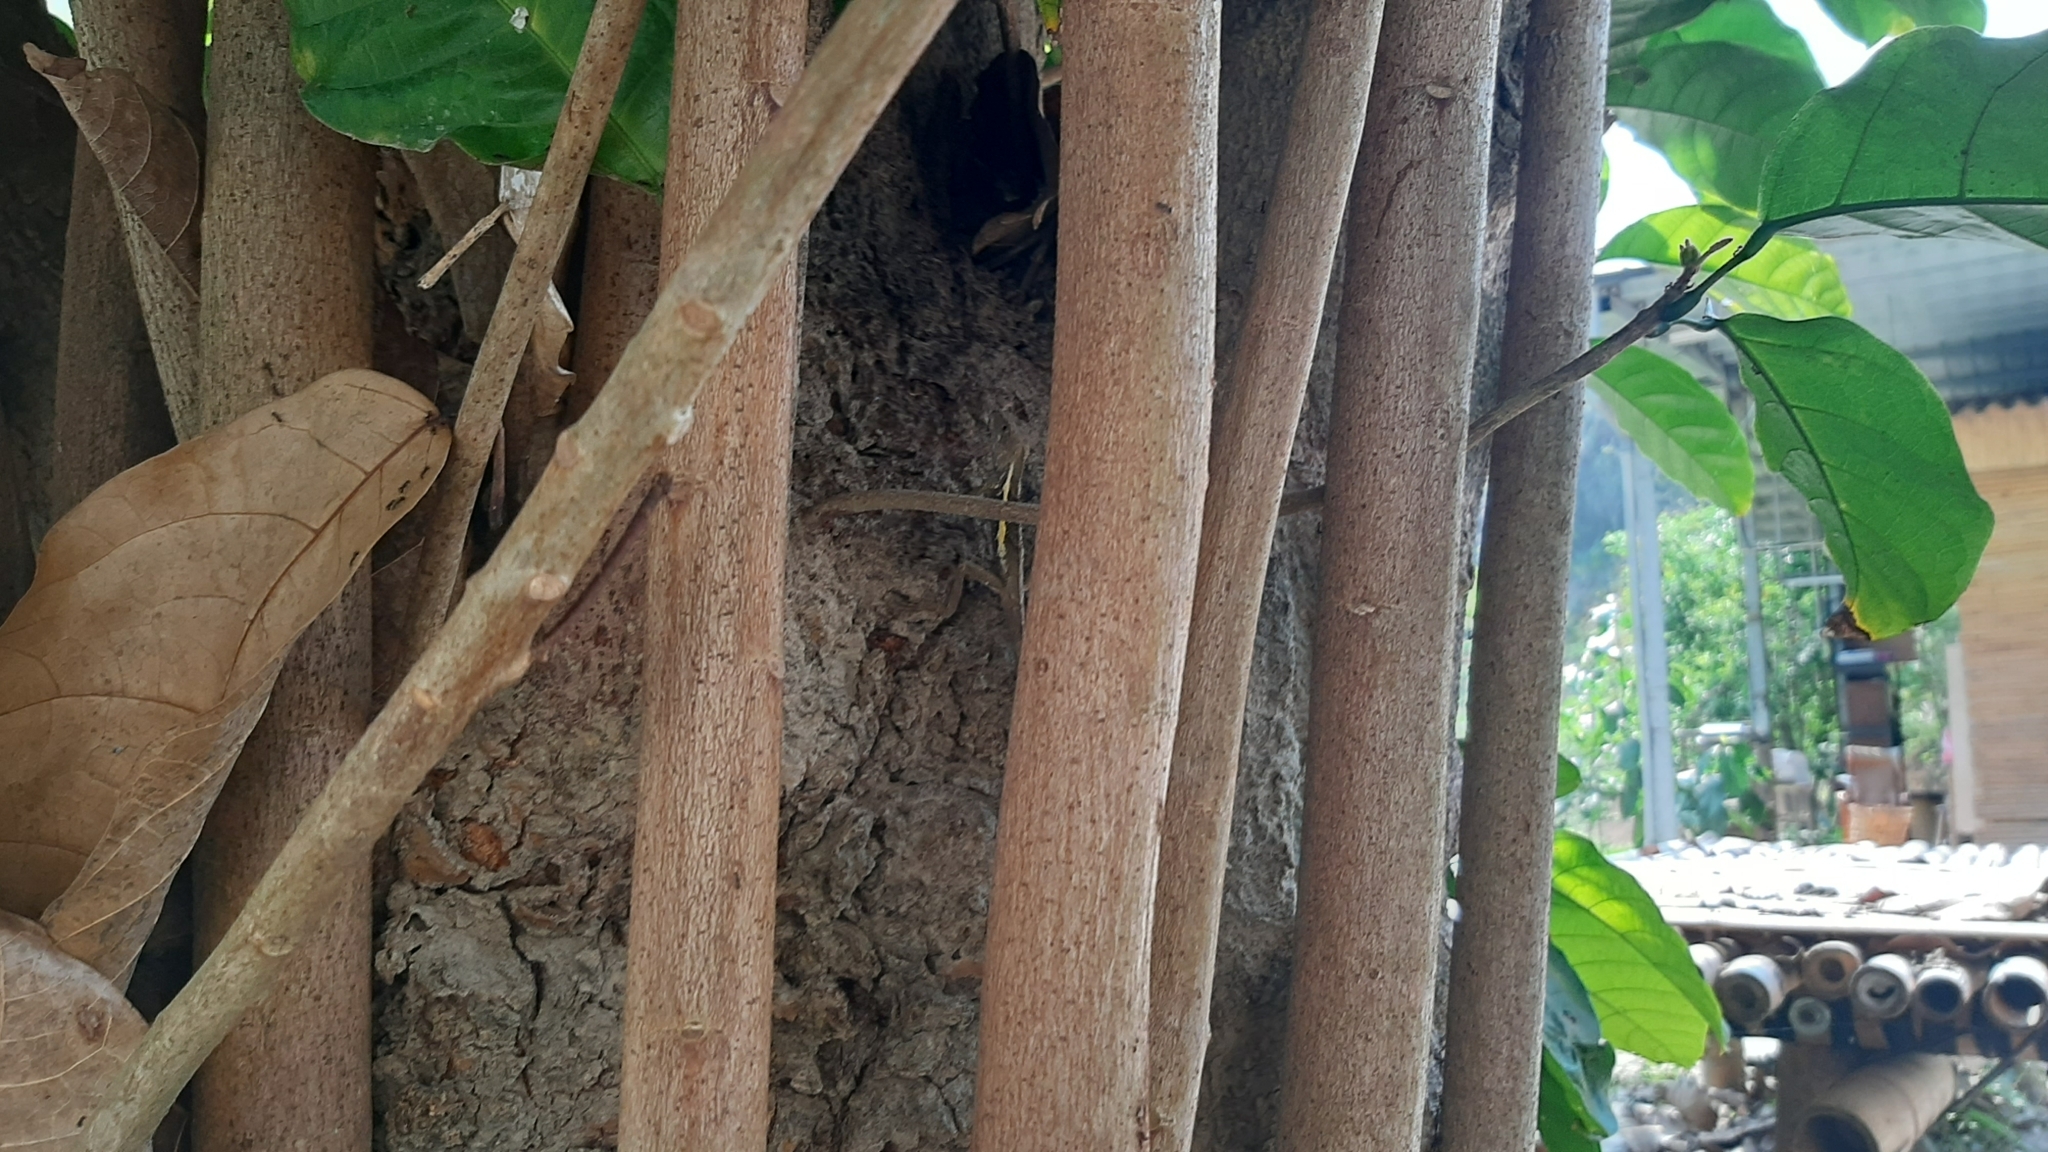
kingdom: Animalia
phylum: Chordata
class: Squamata
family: Agamidae
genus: Diploderma
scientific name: Diploderma swinhonis
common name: Taiwan japalure
